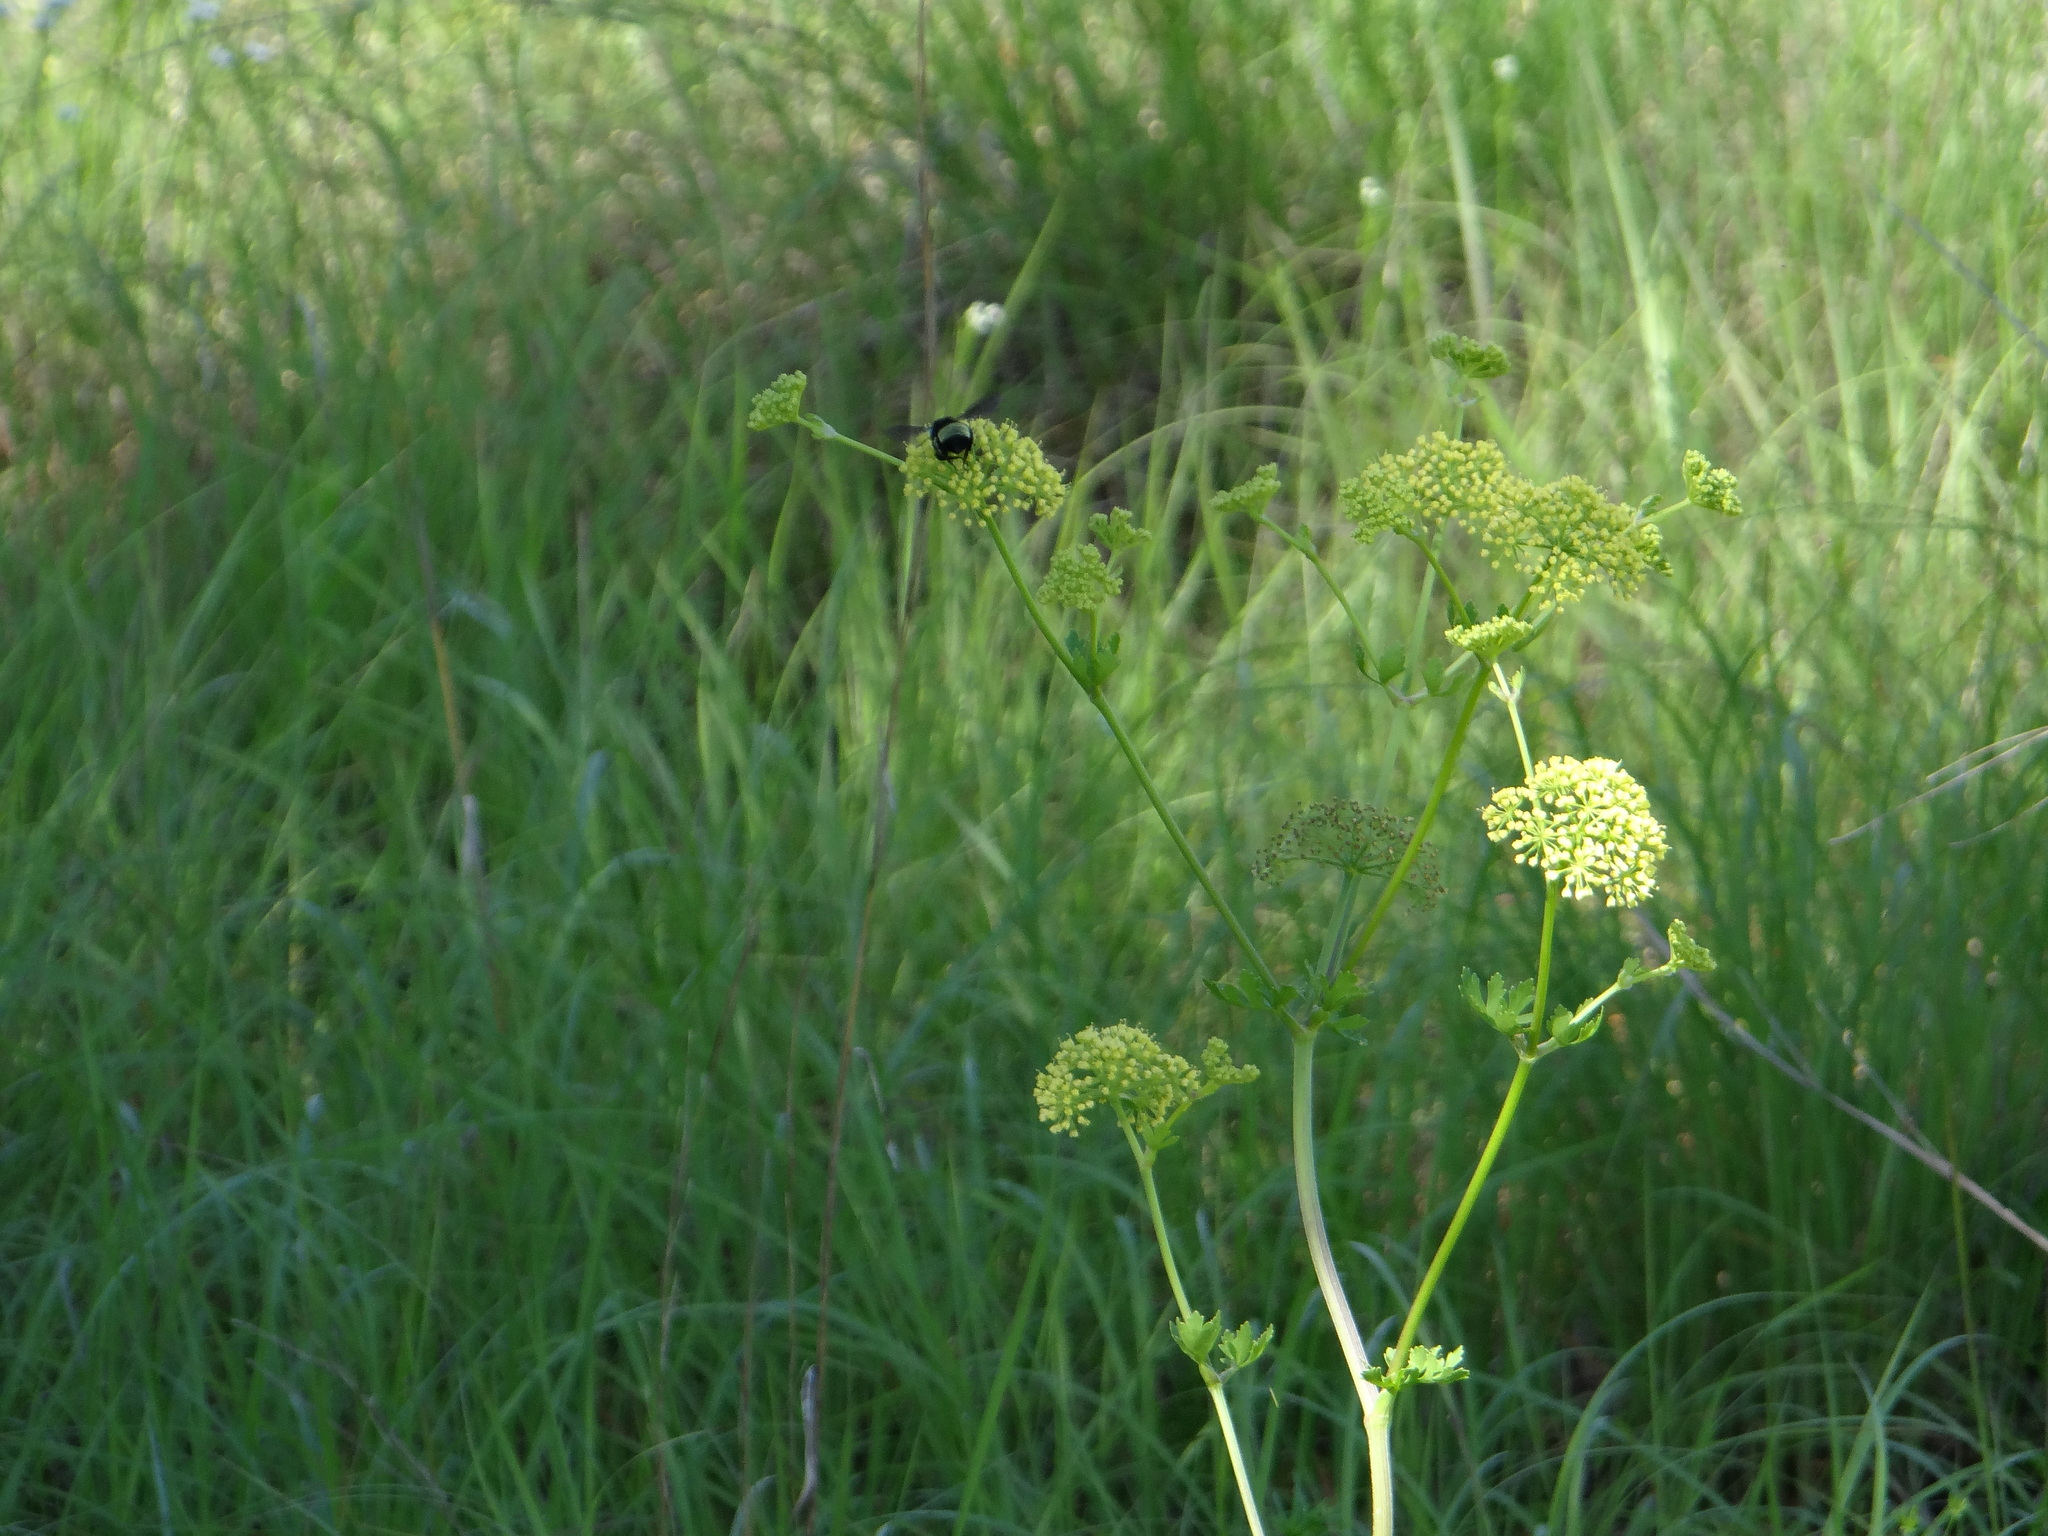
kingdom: Plantae
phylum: Tracheophyta
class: Magnoliopsida
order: Apiales
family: Apiaceae
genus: Polytaenia
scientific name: Polytaenia texana
